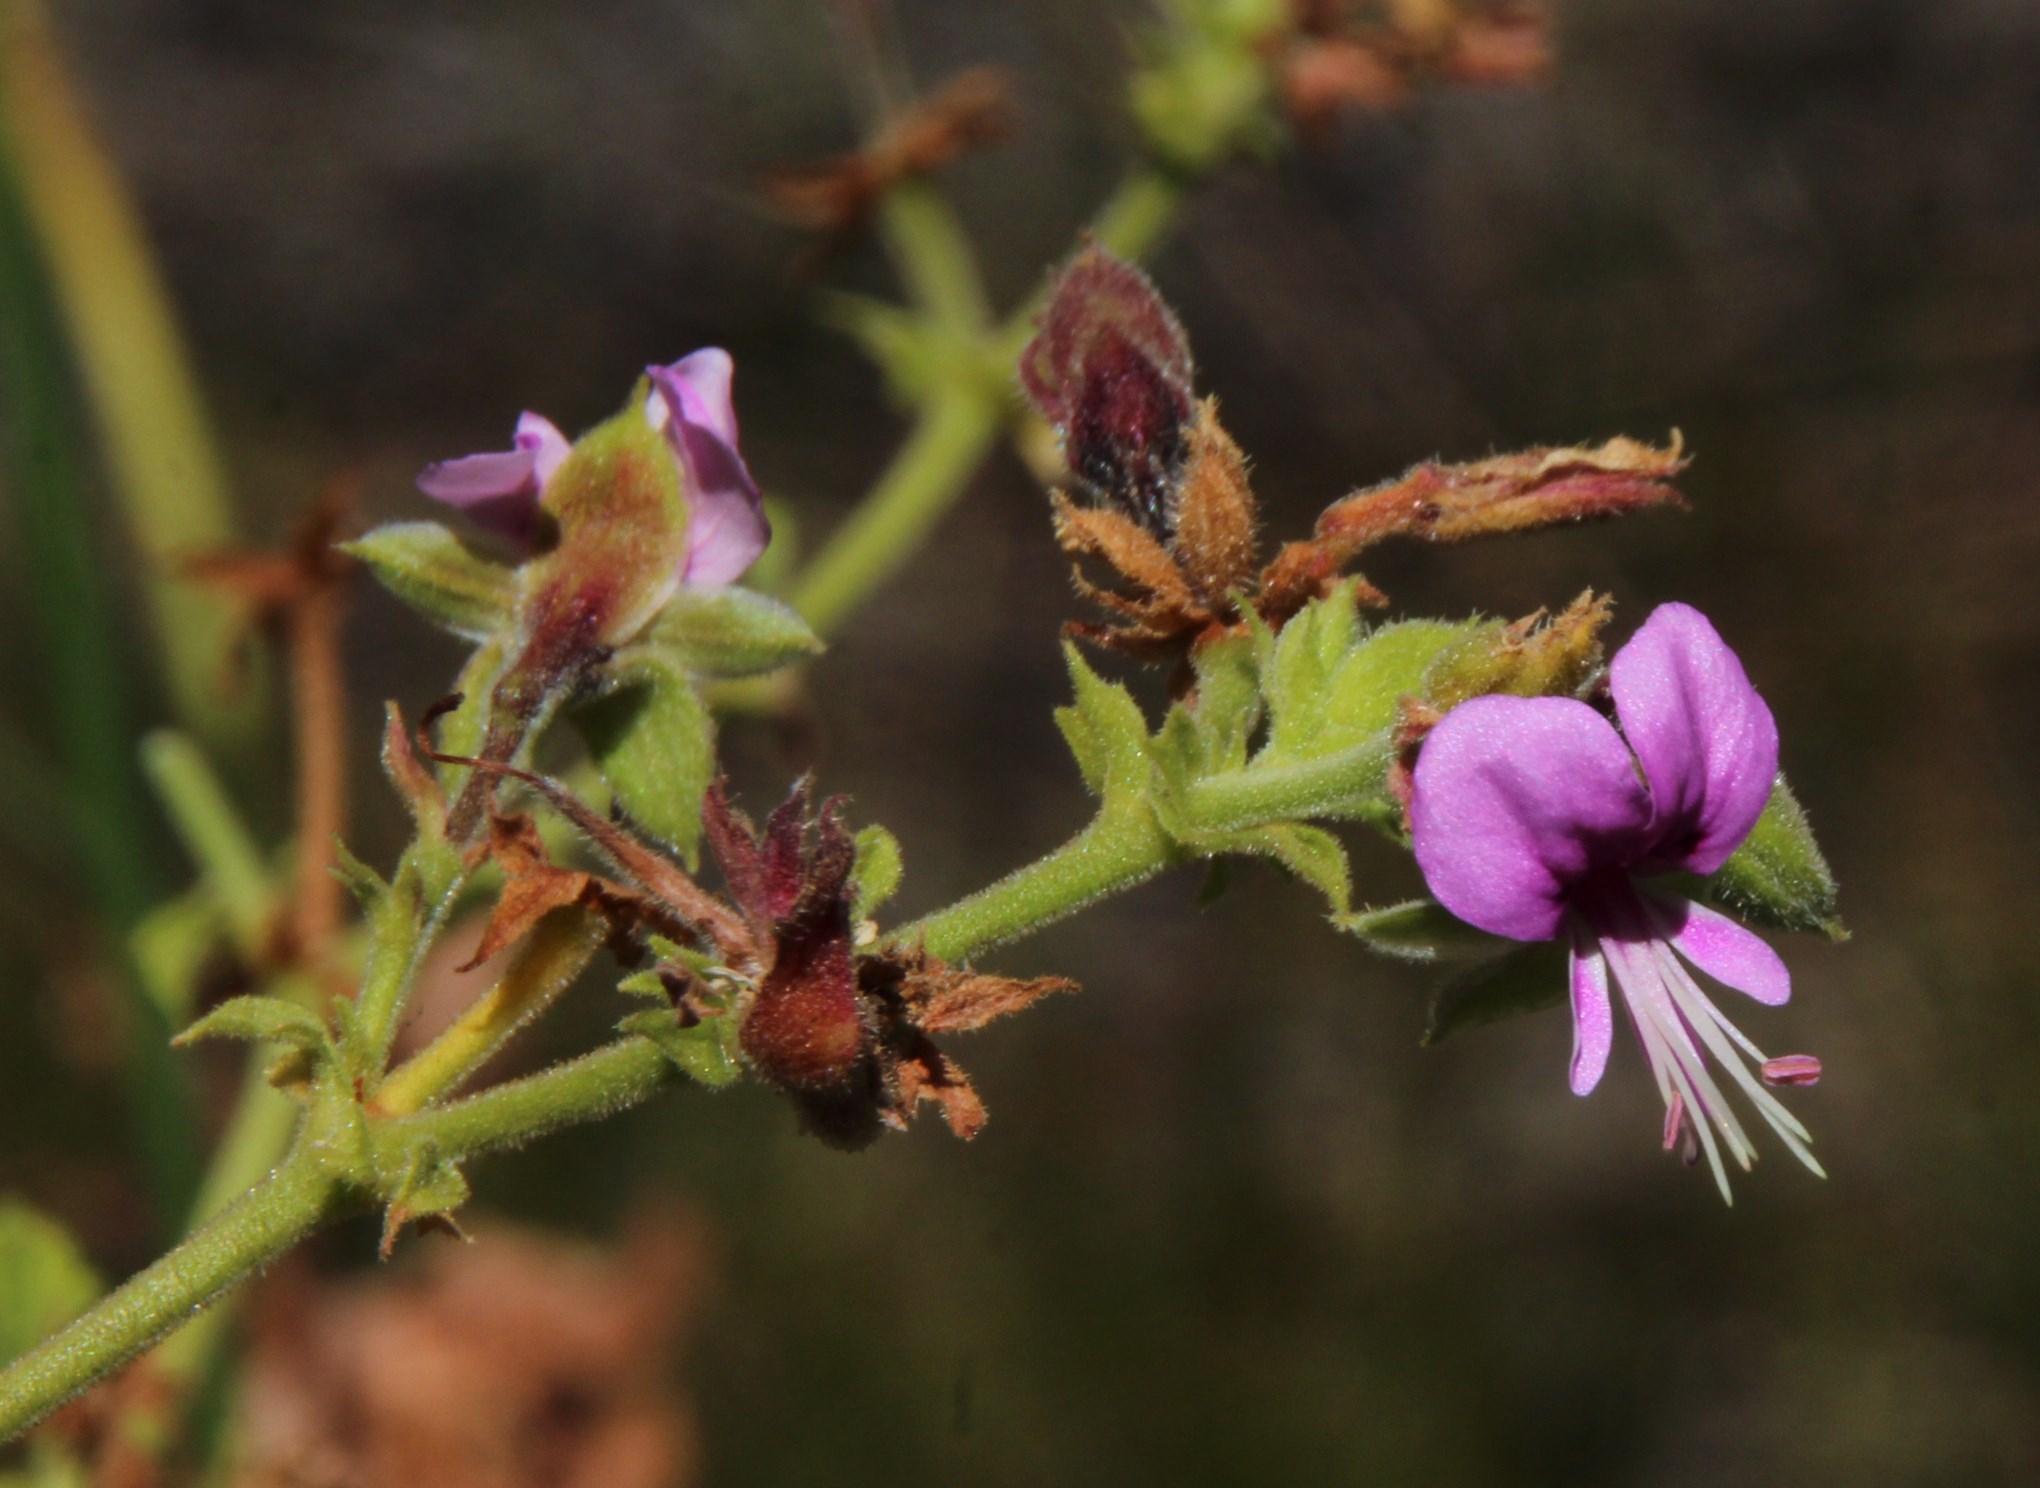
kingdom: Plantae
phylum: Tracheophyta
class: Magnoliopsida
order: Geraniales
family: Geraniaceae
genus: Pelargonium
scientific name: Pelargonium hispidum
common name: Hispid pelargonium
